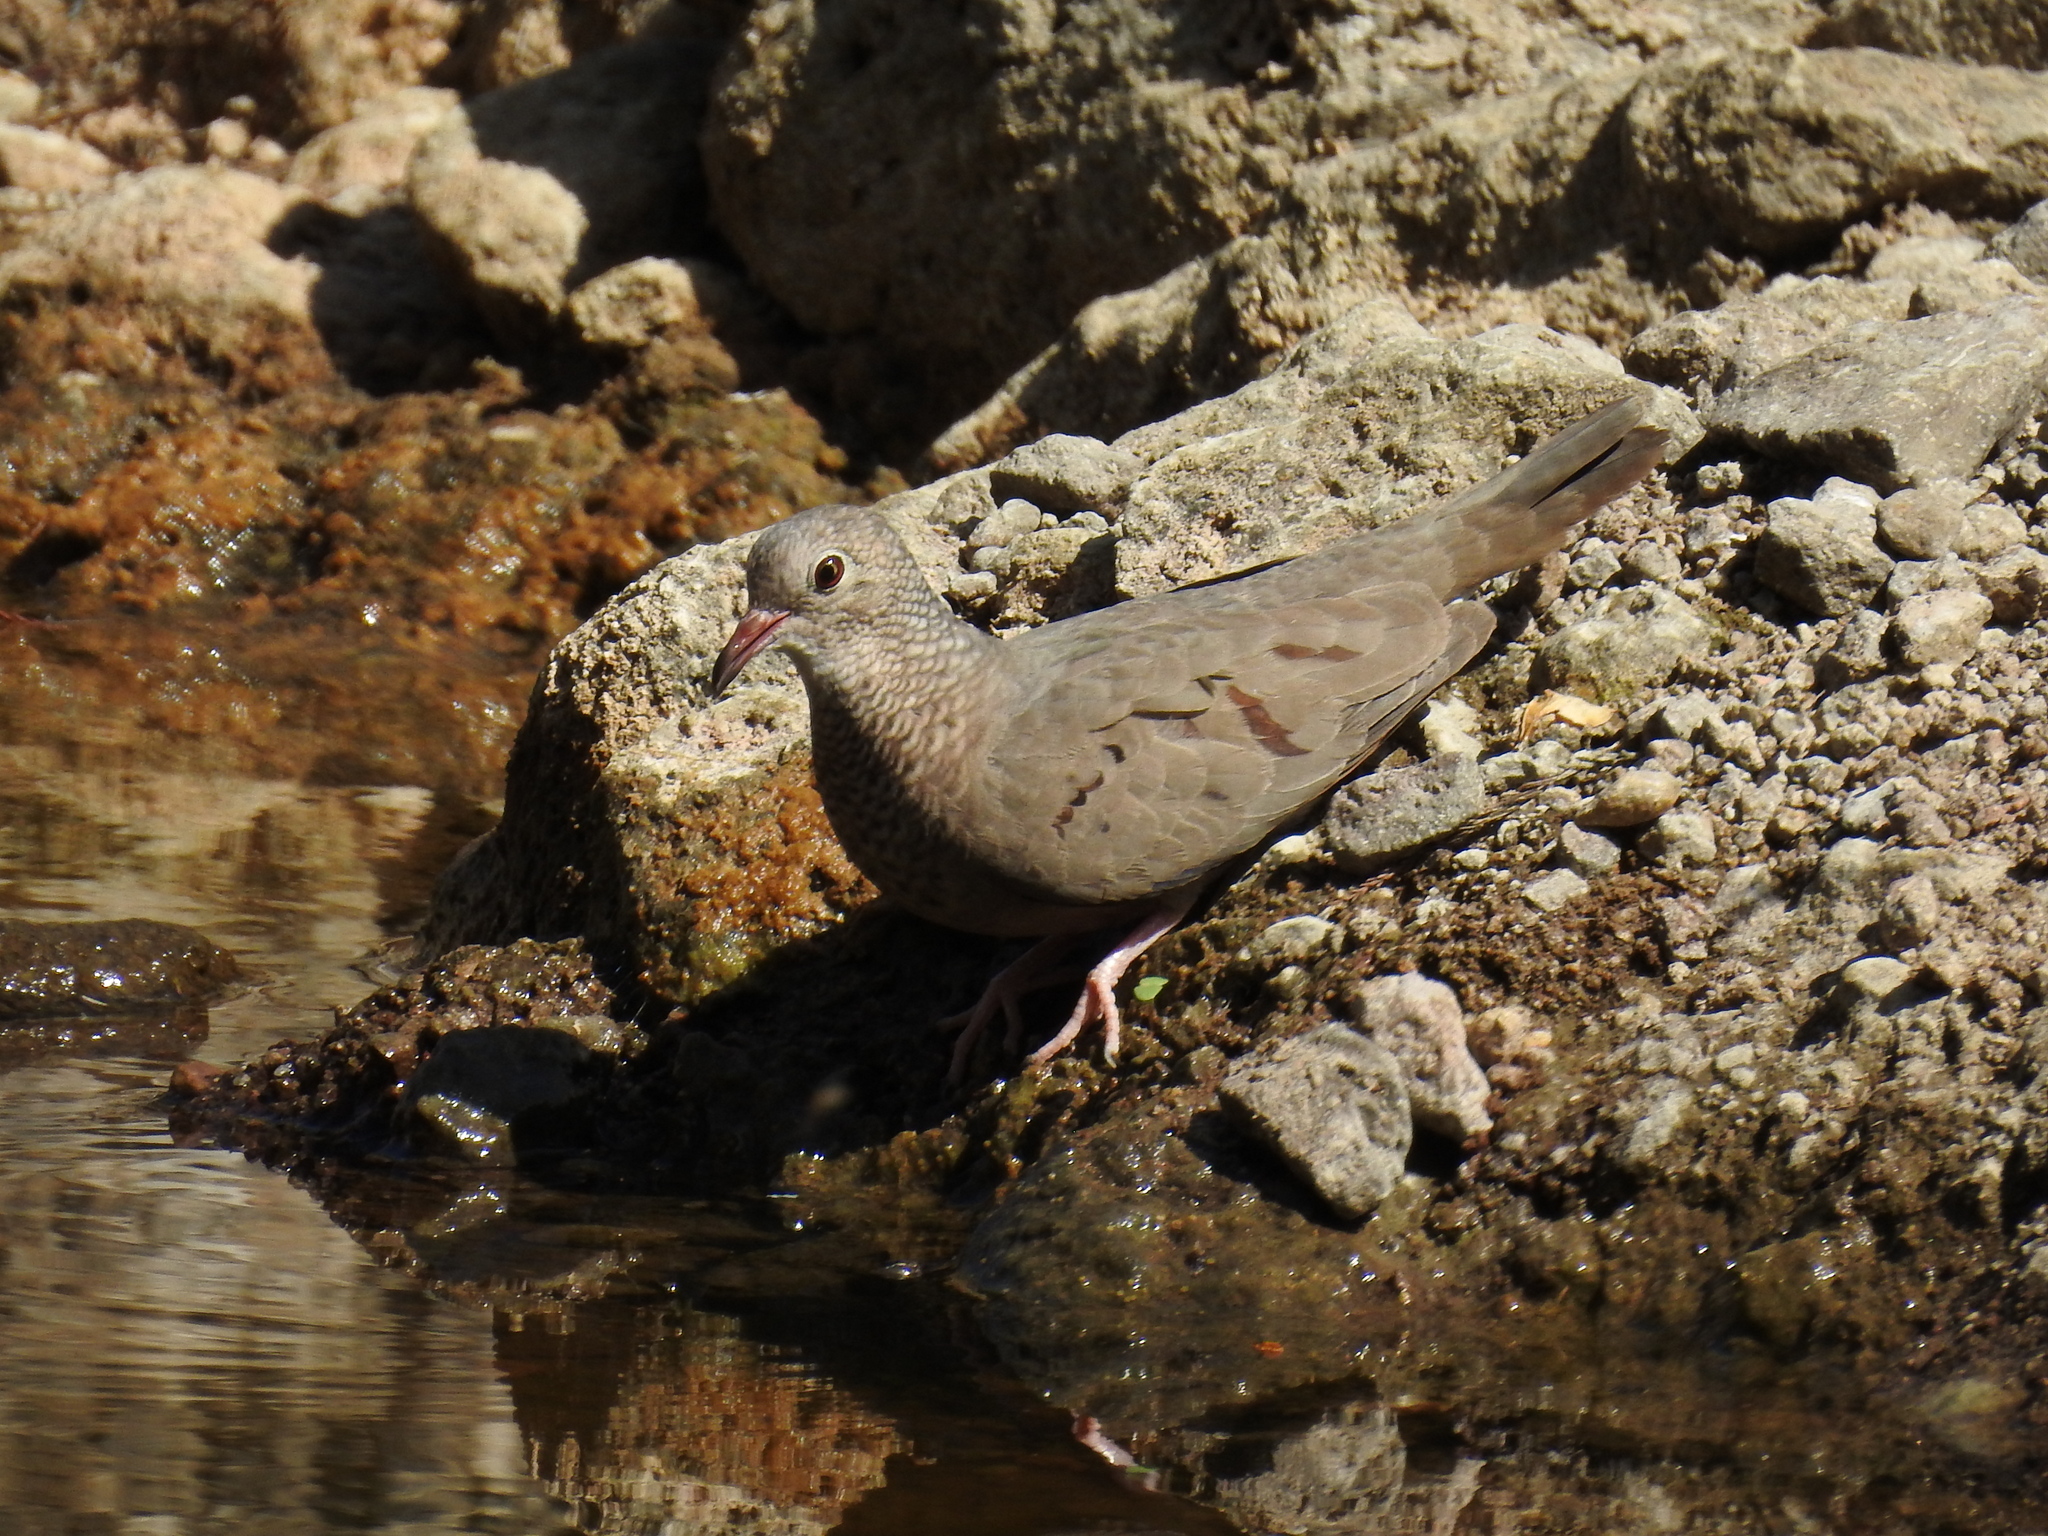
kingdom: Animalia
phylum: Chordata
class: Aves
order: Columbiformes
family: Columbidae
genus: Columbina
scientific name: Columbina passerina
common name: Common ground-dove
